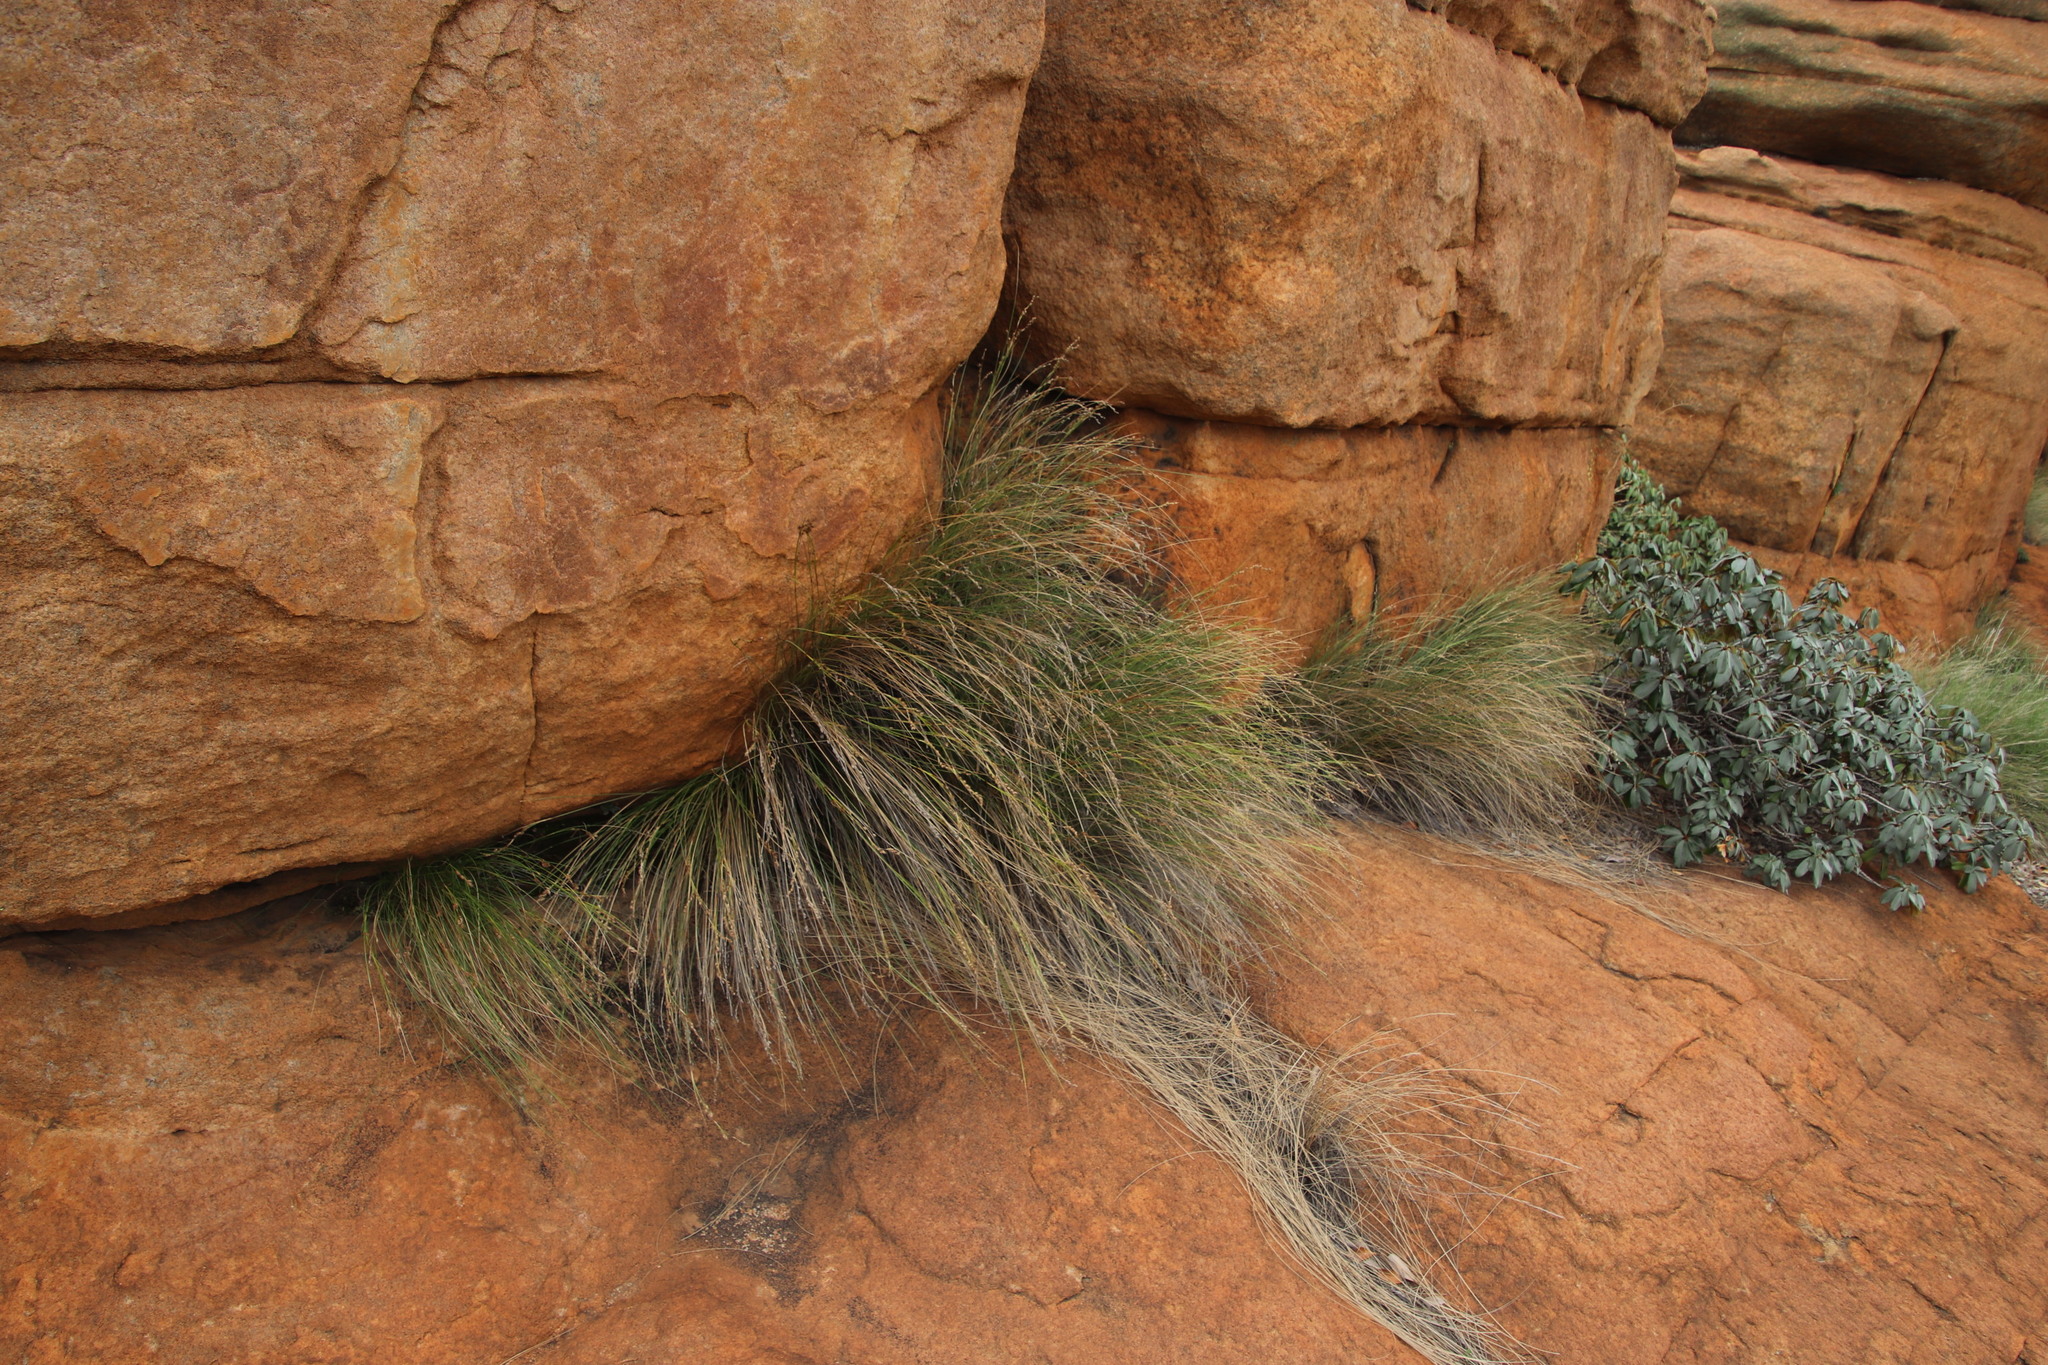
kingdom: Plantae
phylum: Tracheophyta
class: Liliopsida
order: Poales
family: Cyperaceae
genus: Coleochloa
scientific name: Coleochloa setifera
